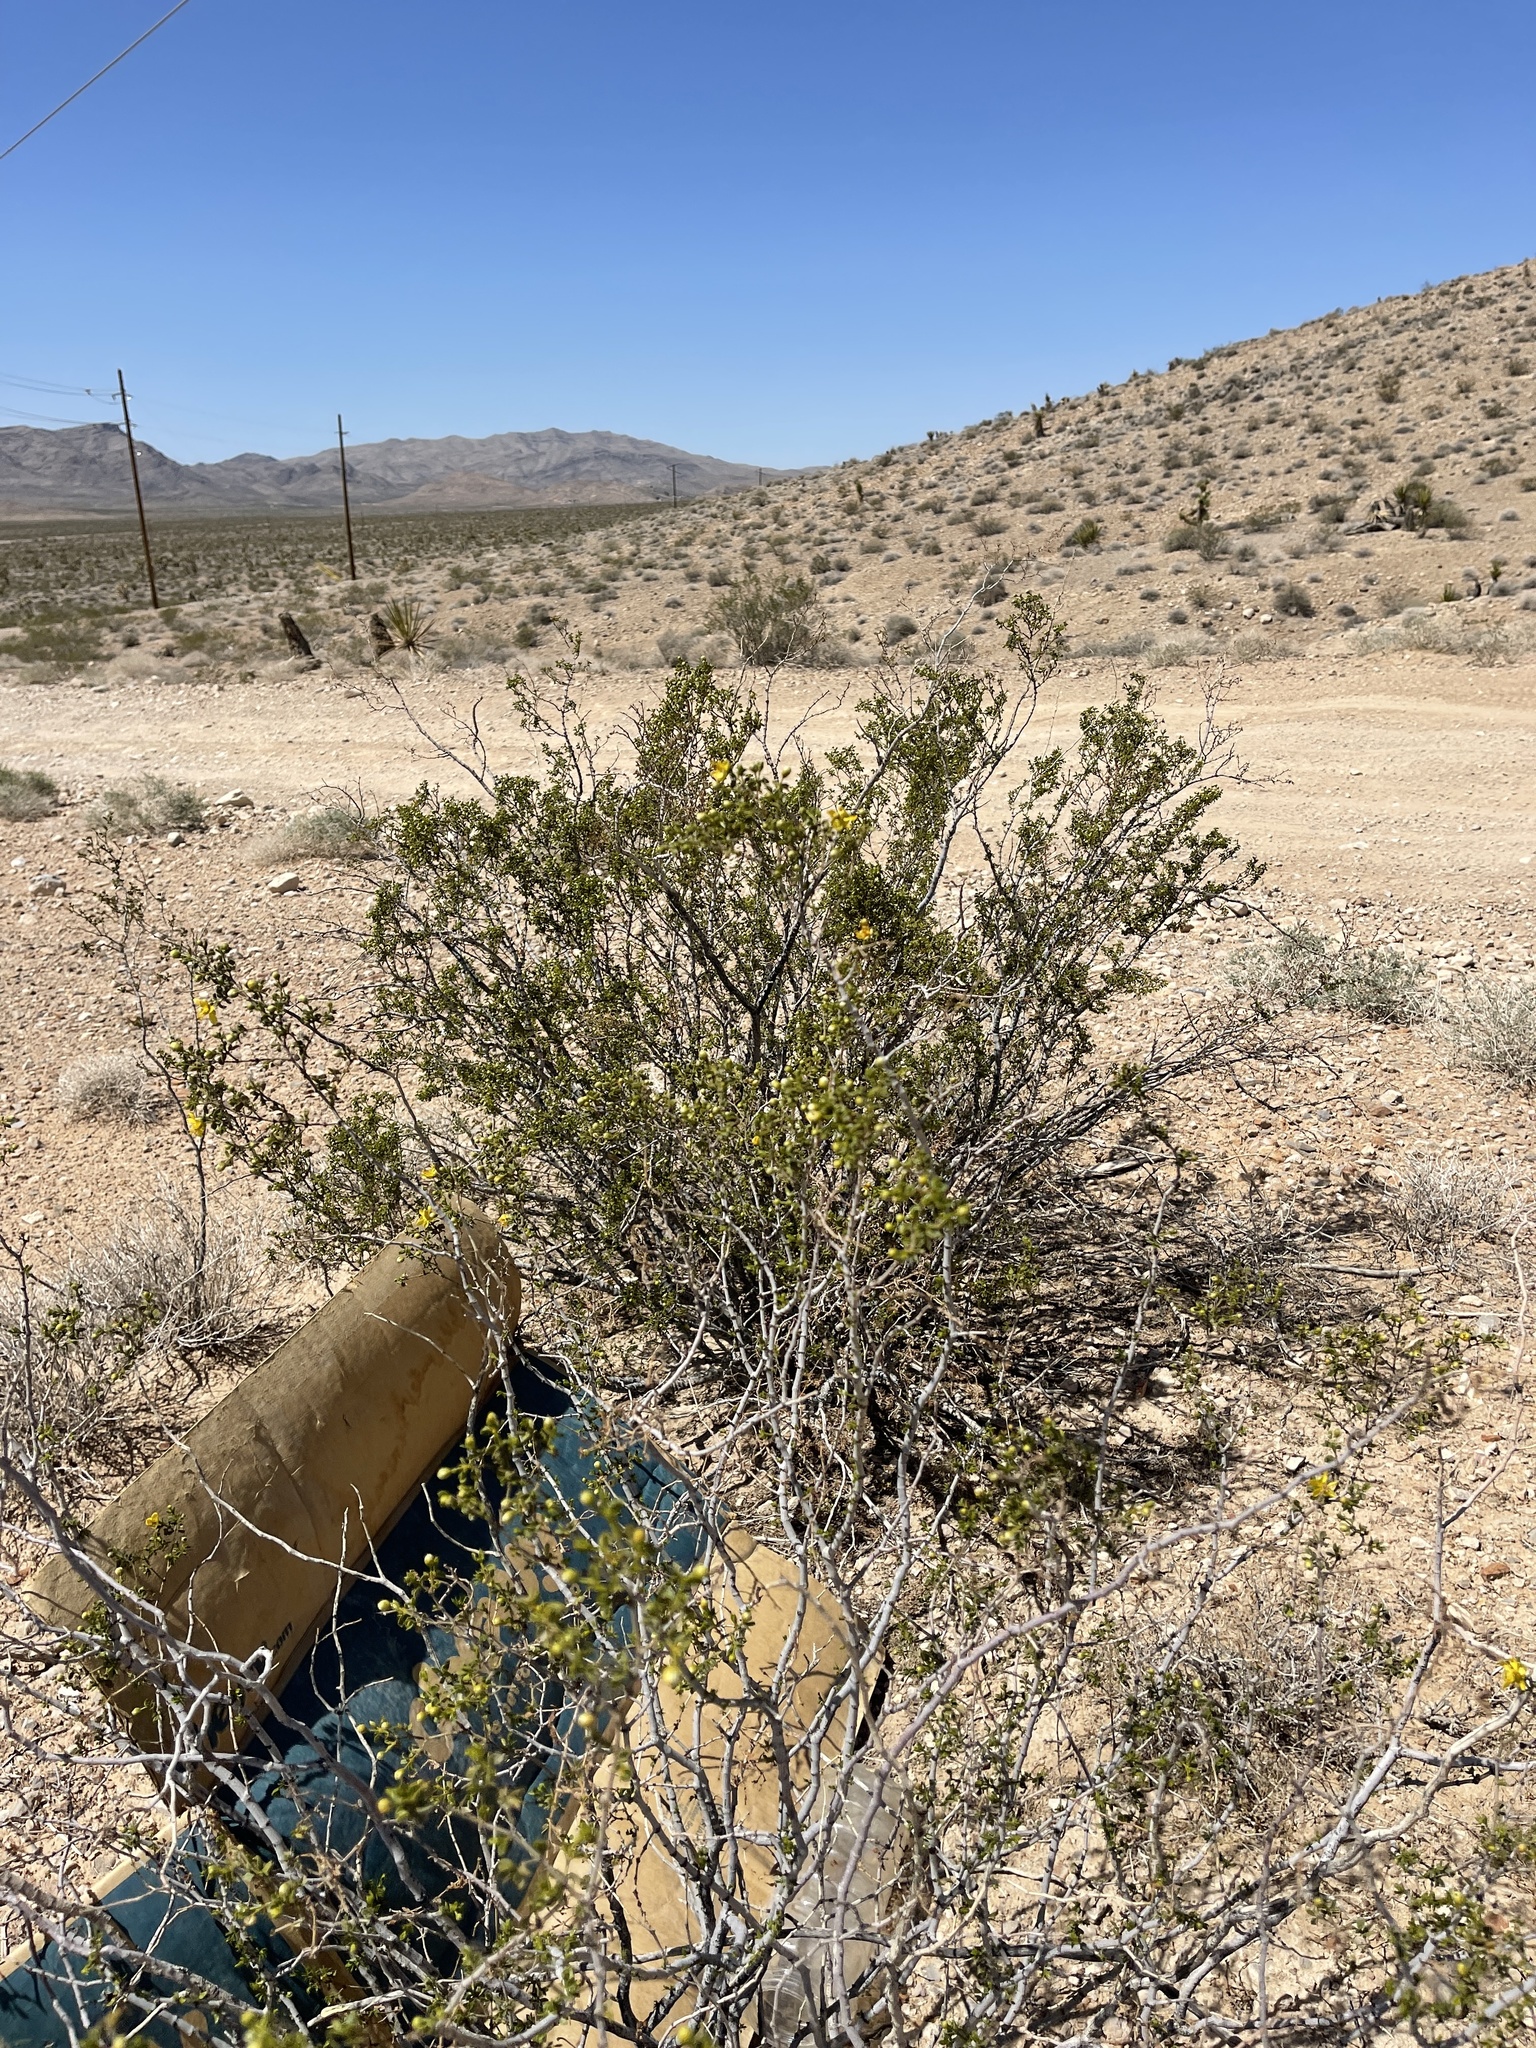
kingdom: Plantae
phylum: Tracheophyta
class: Magnoliopsida
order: Zygophyllales
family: Zygophyllaceae
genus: Larrea
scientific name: Larrea tridentata
